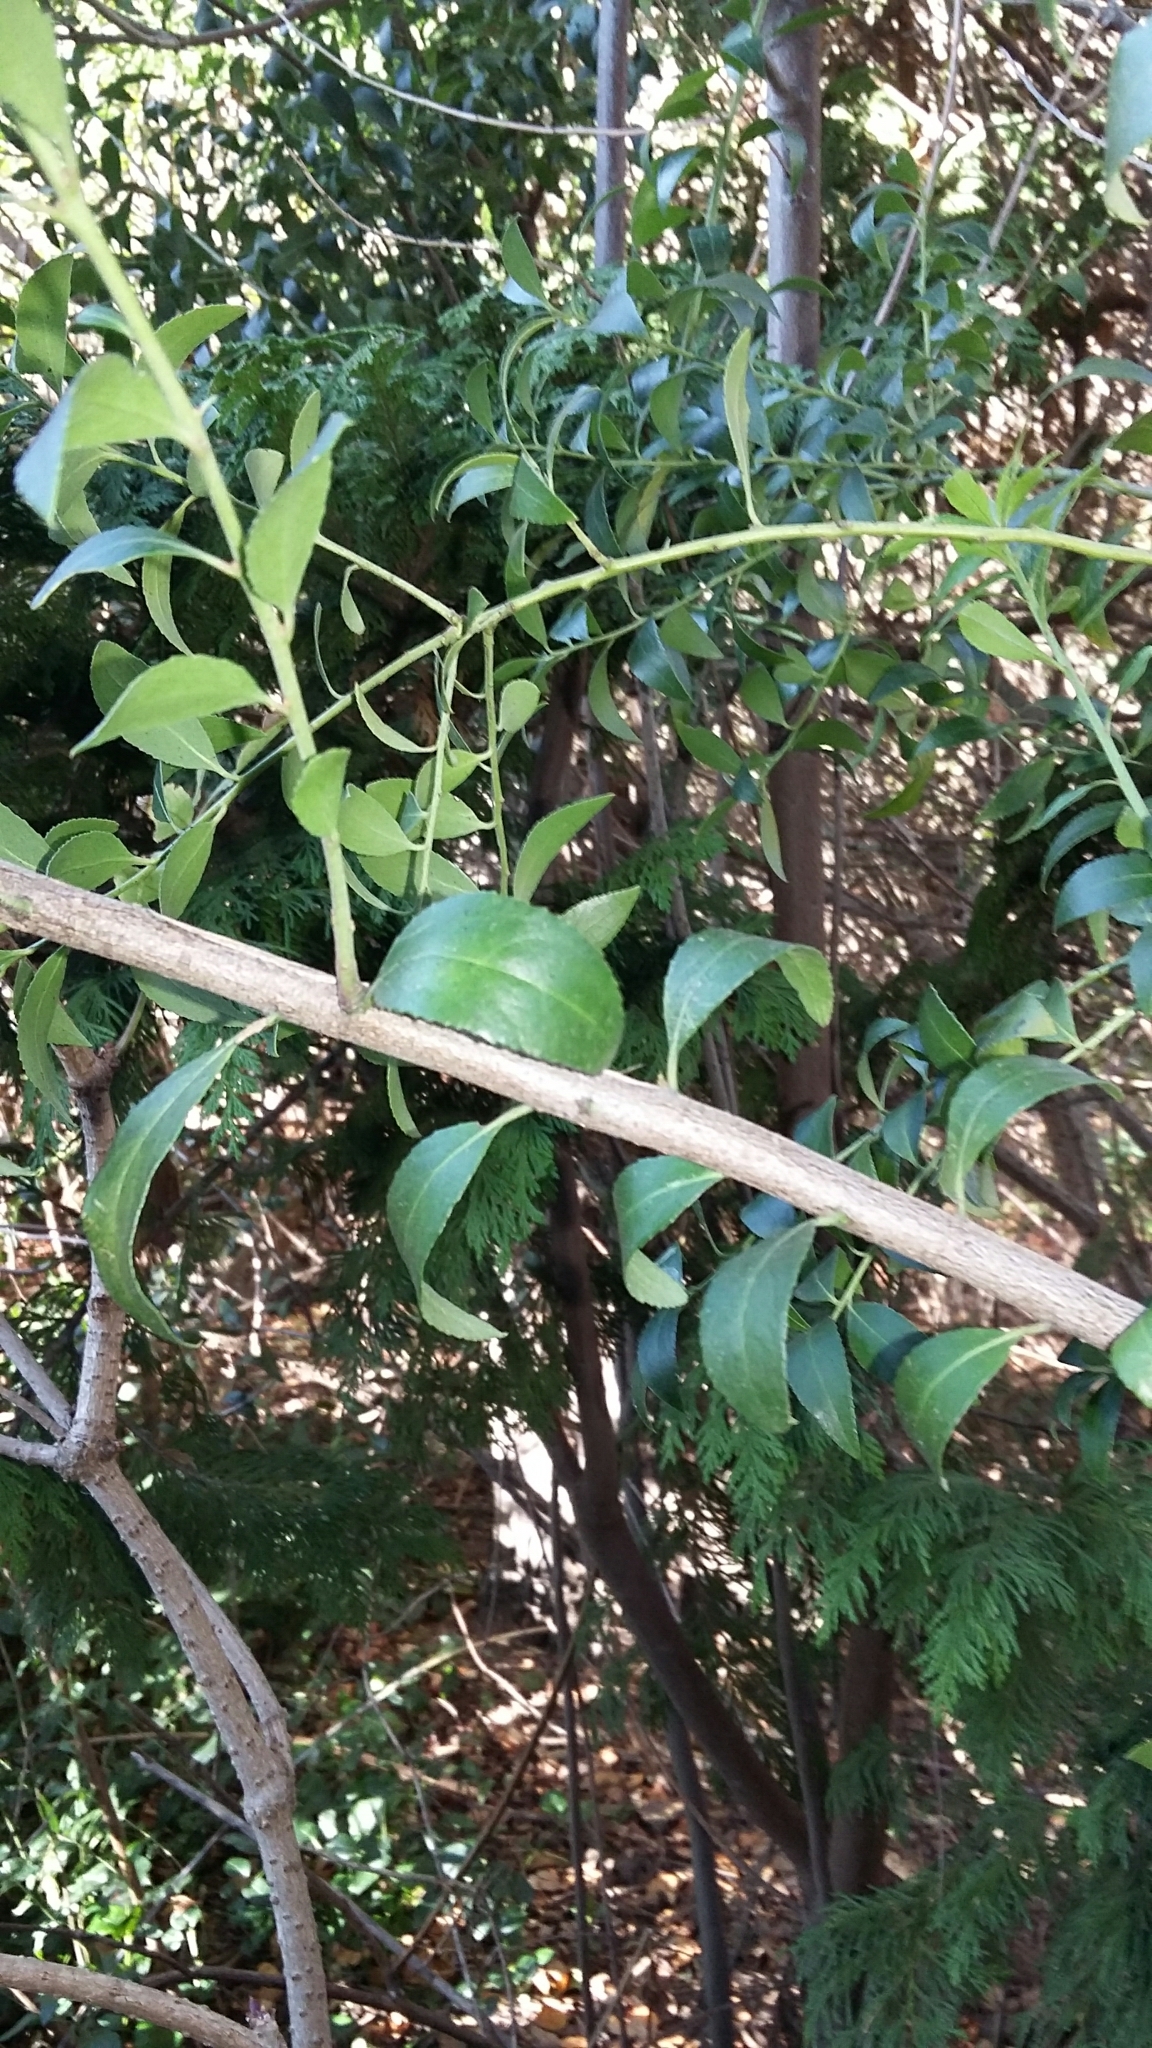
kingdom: Plantae
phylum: Tracheophyta
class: Magnoliopsida
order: Celastrales
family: Celastraceae
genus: Maytenus
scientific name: Maytenus boaria
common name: Mayten
